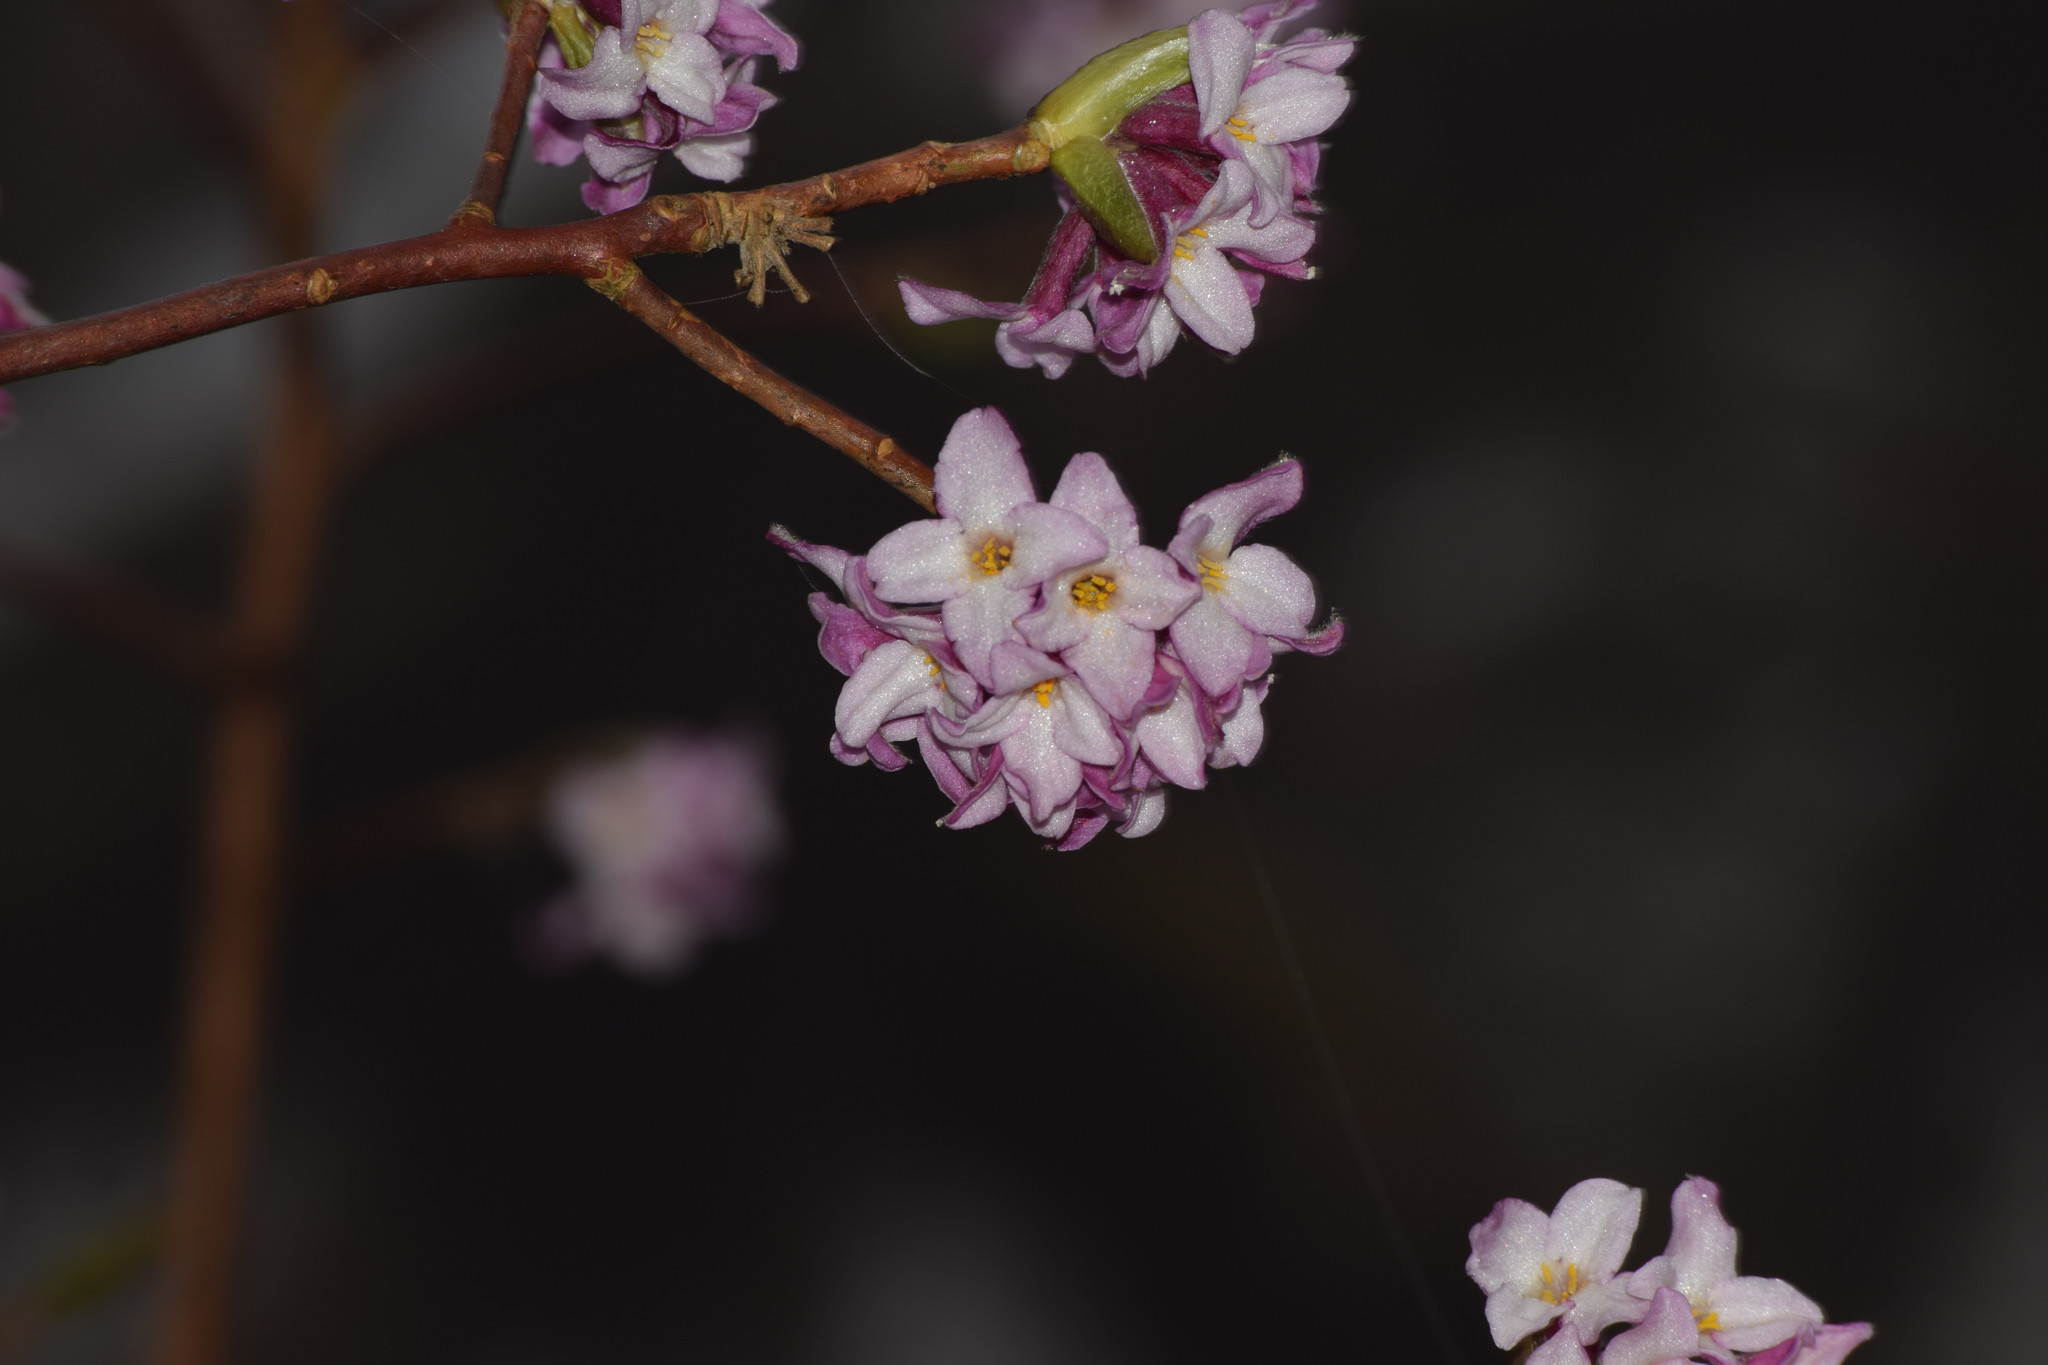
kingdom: Plantae
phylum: Tracheophyta
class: Magnoliopsida
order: Malvales
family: Thymelaeaceae
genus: Daphne
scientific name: Daphne bholua
